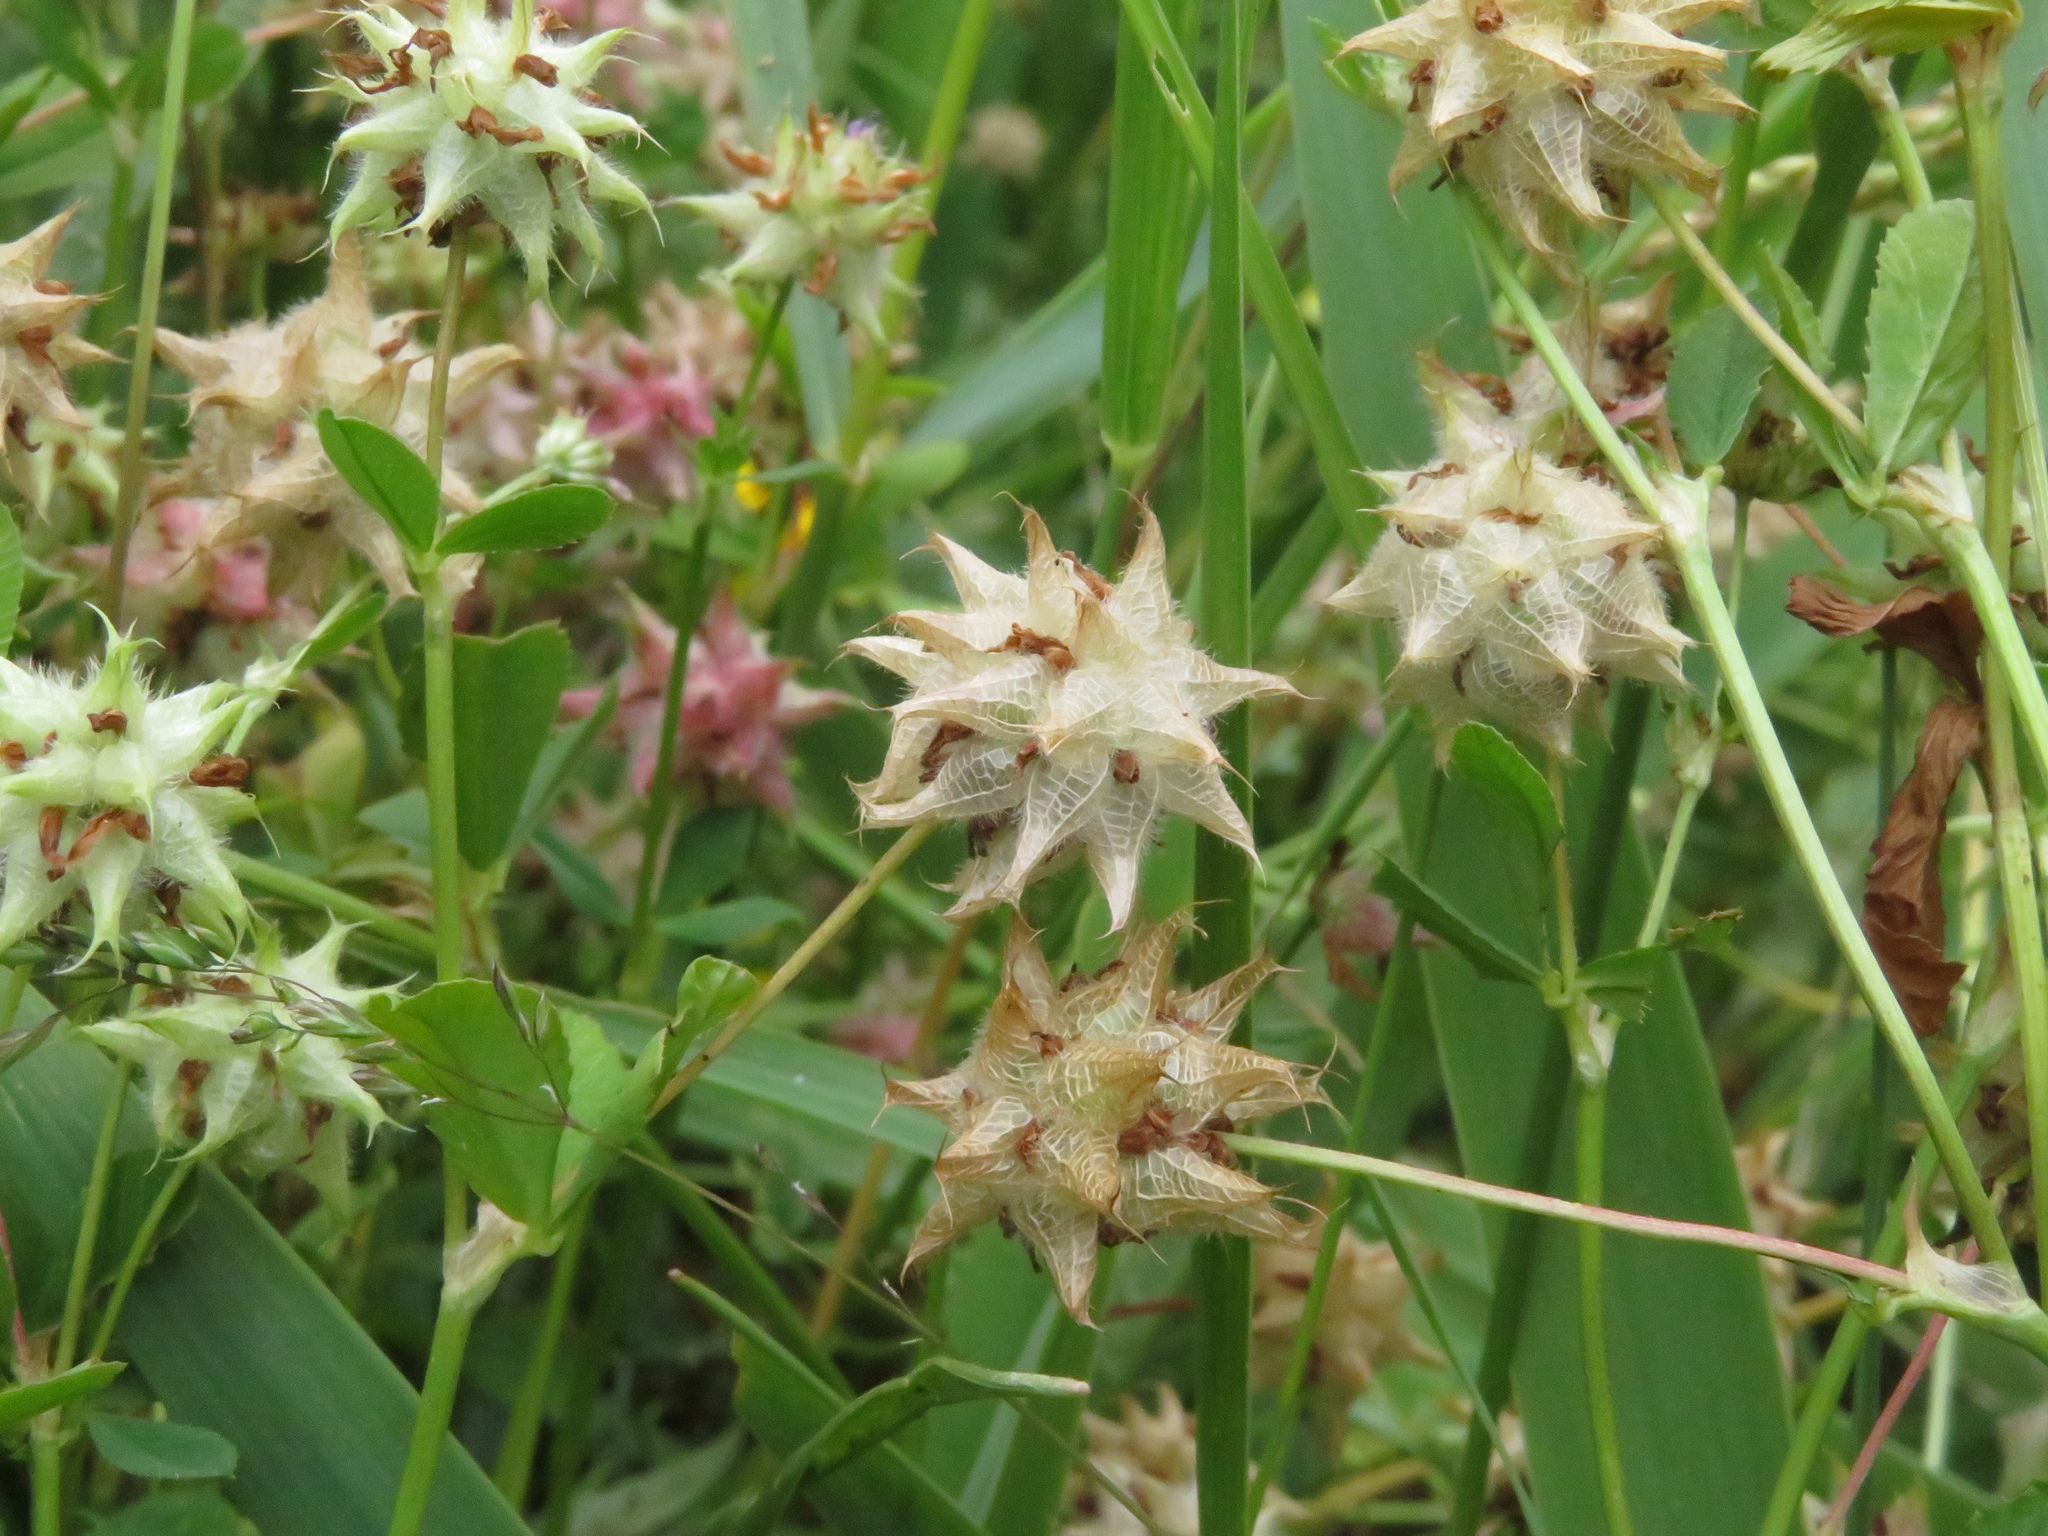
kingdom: Plantae
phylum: Tracheophyta
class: Magnoliopsida
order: Fabales
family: Fabaceae
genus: Trifolium
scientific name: Trifolium resupinatum
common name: Reversed clover
